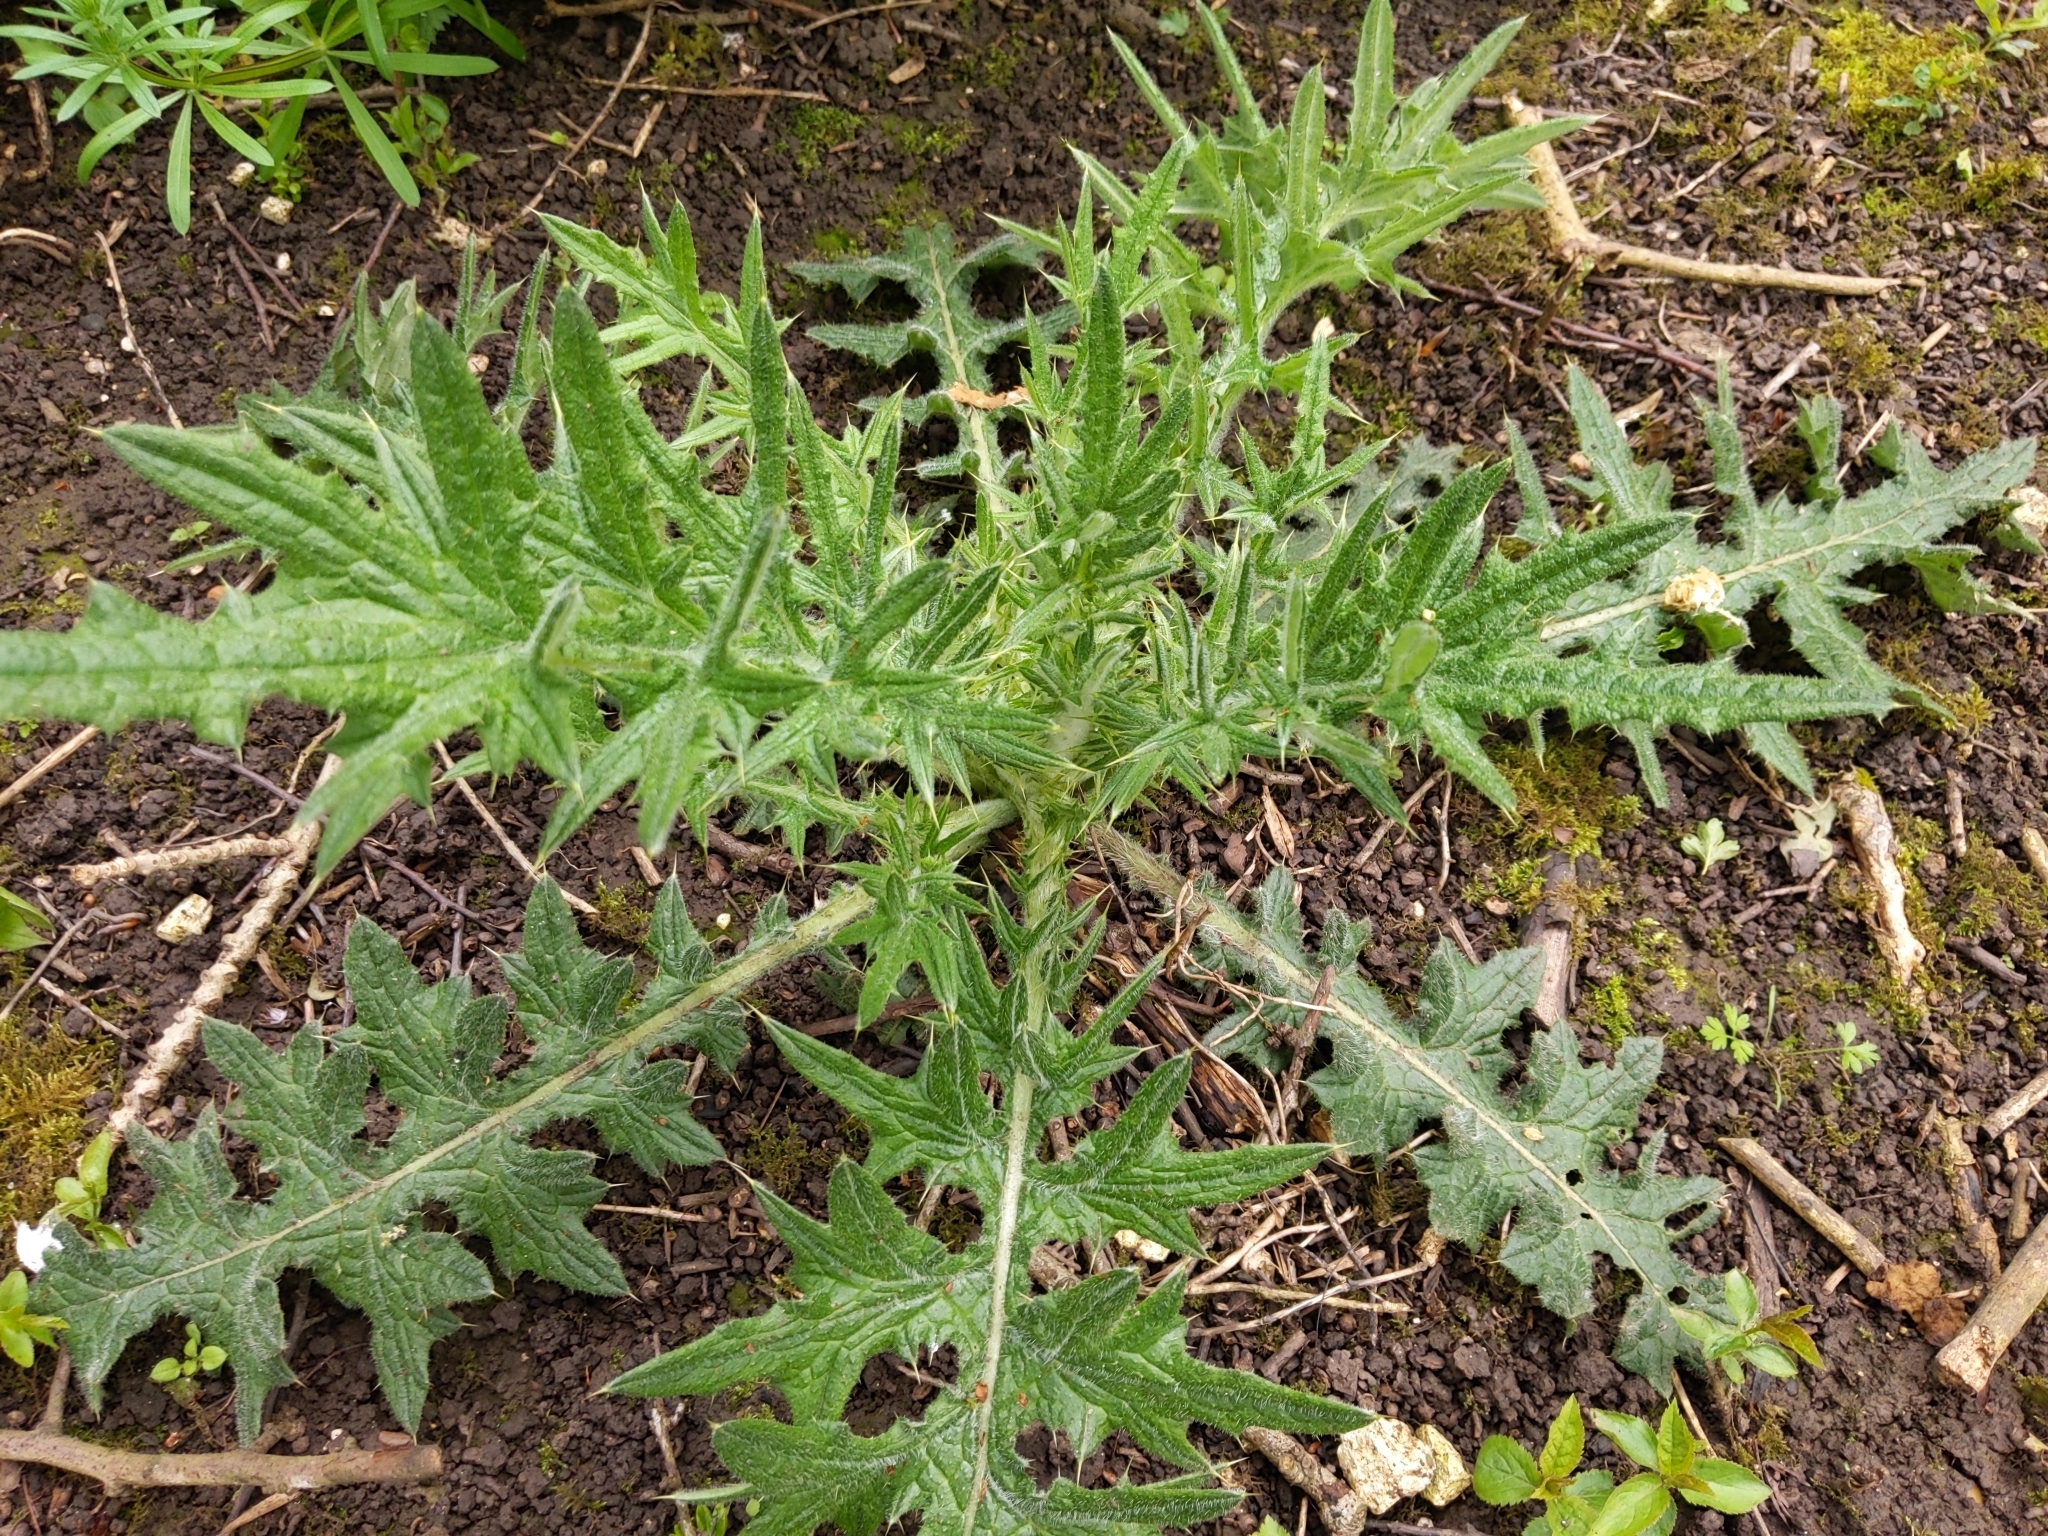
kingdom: Plantae
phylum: Tracheophyta
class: Magnoliopsida
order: Asterales
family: Asteraceae
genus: Cirsium
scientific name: Cirsium vulgare
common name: Bull thistle
